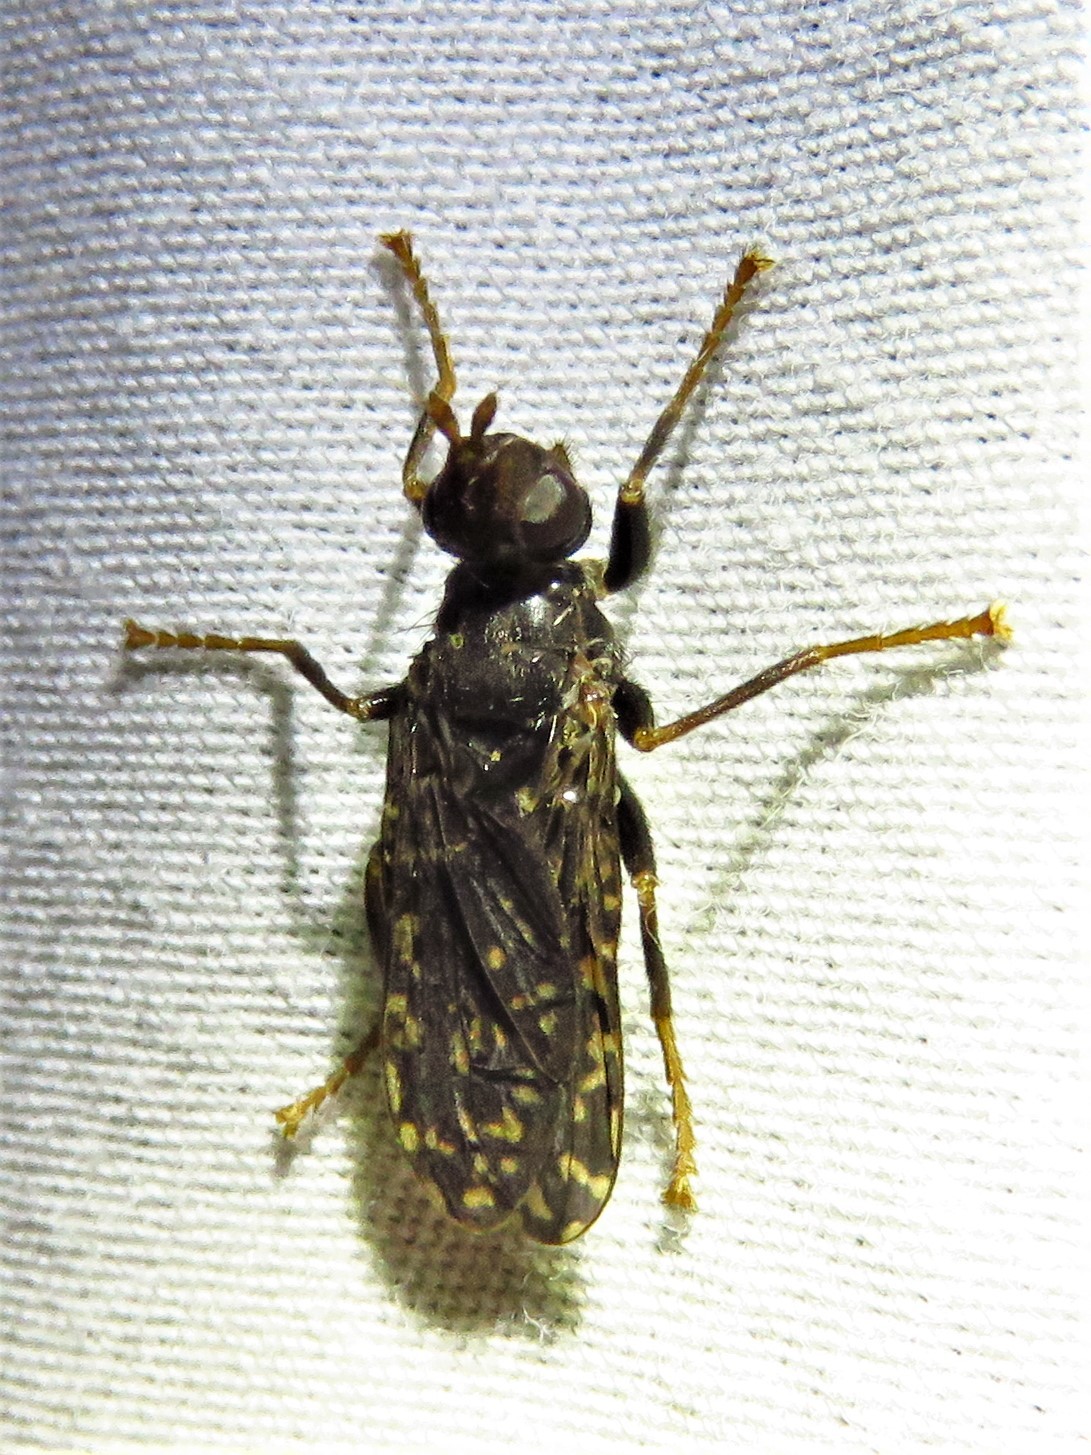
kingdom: Animalia
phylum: Arthropoda
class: Insecta
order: Diptera
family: Pyrgotidae
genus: Pyrgota
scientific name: Pyrgota valida
